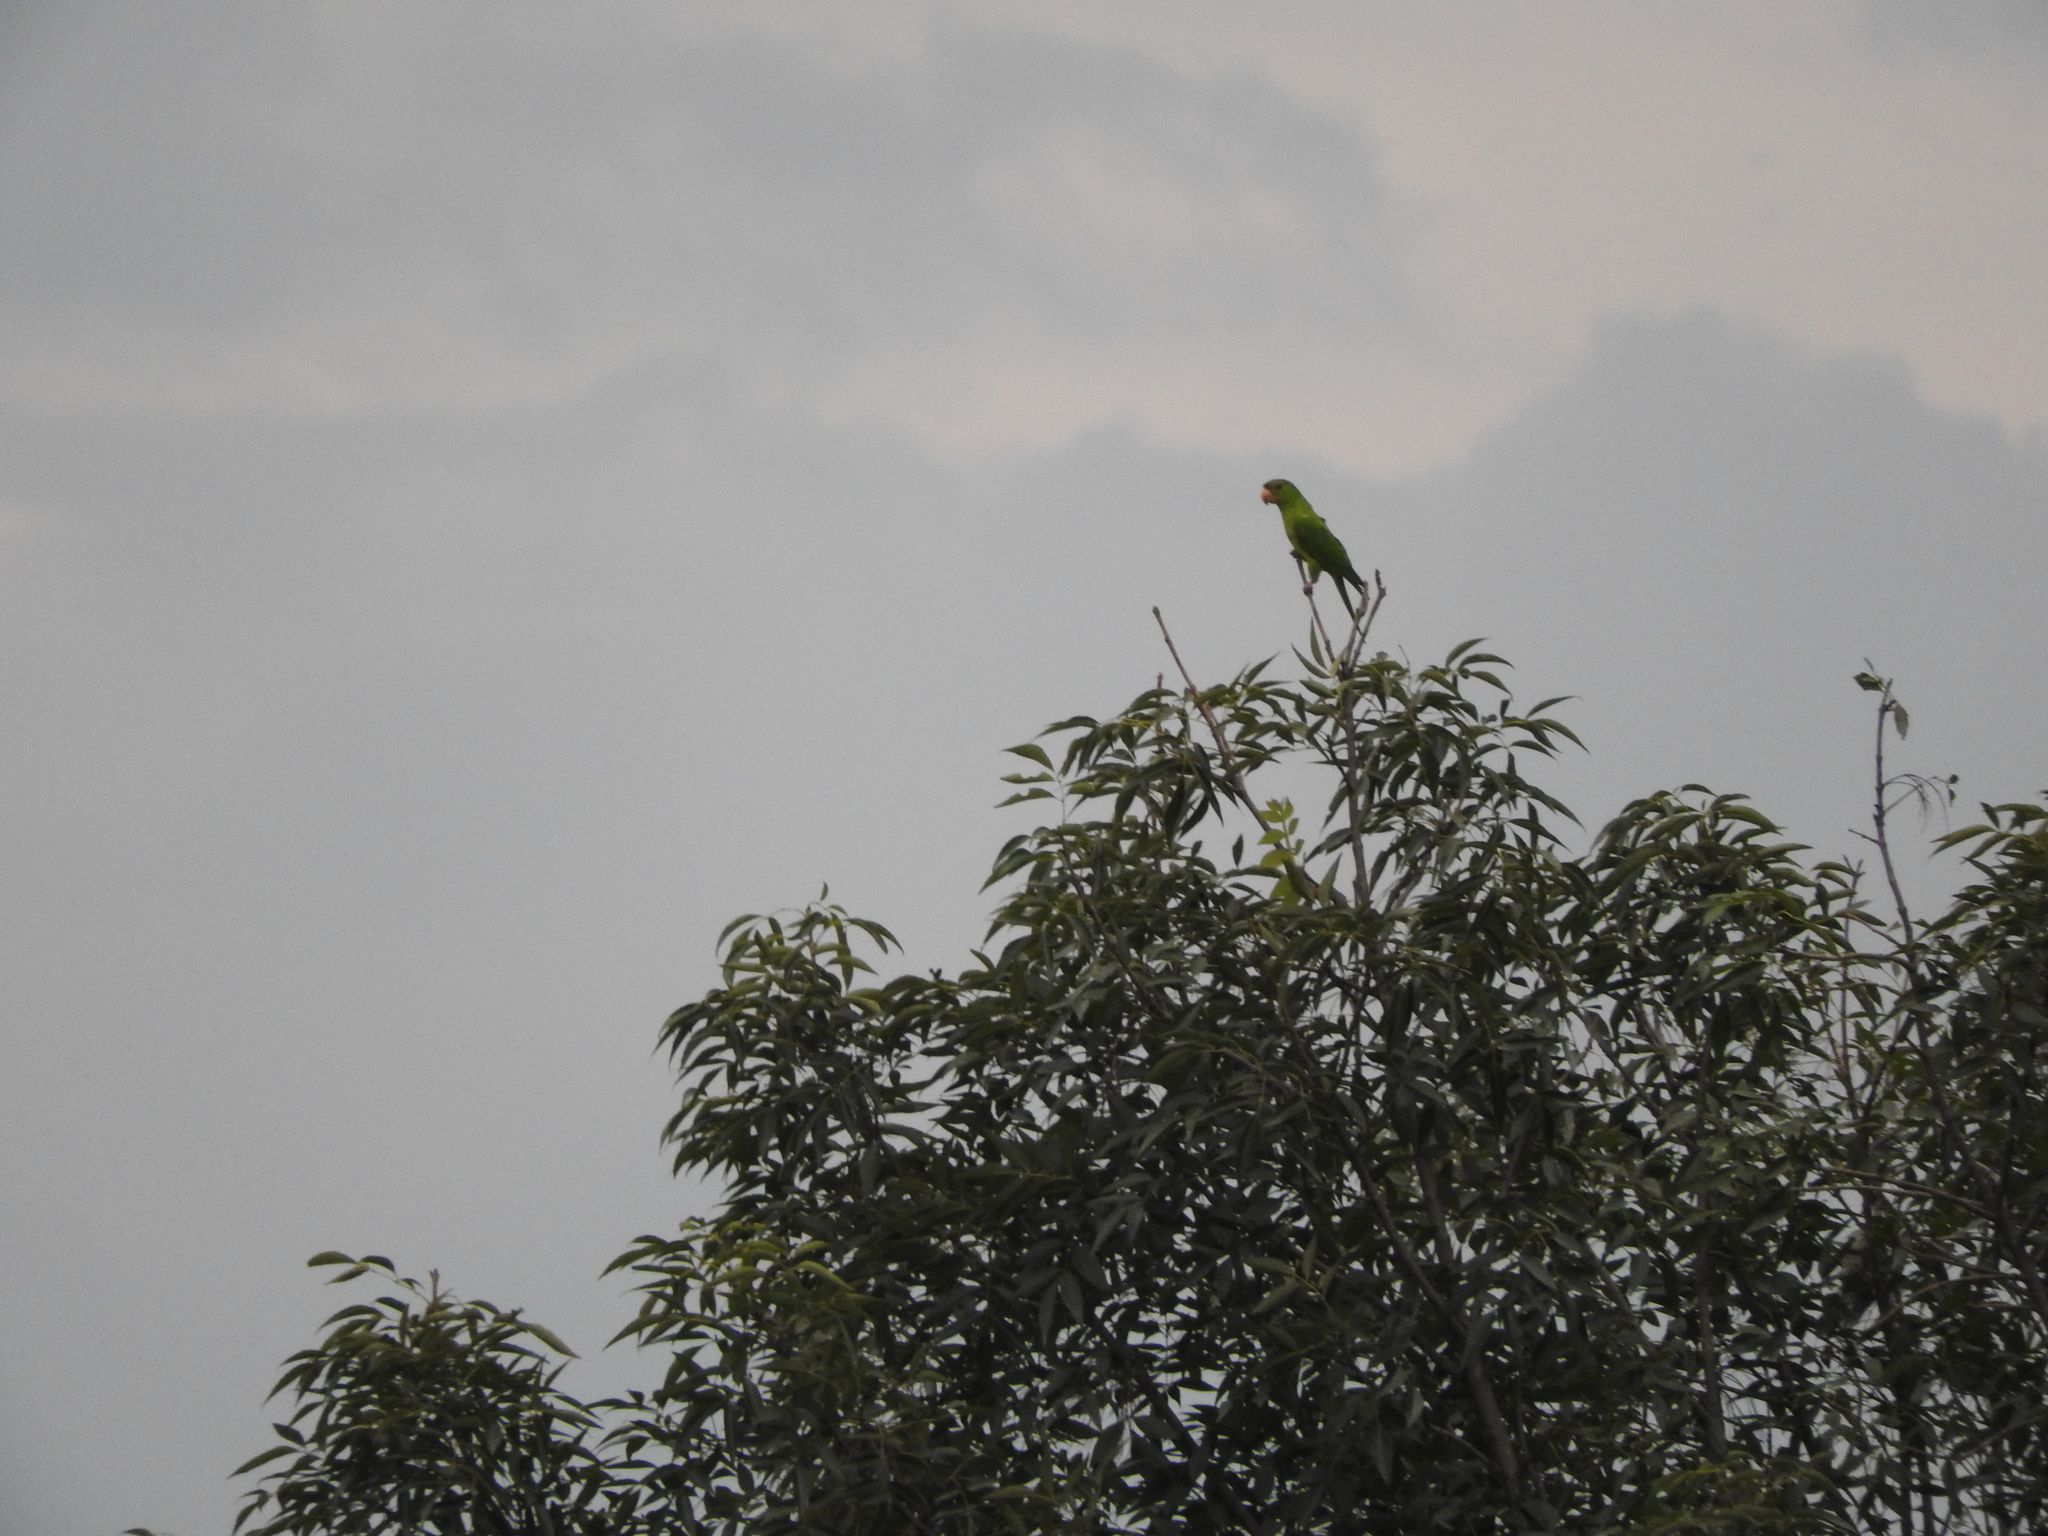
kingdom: Animalia
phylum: Chordata
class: Aves
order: Psittaciformes
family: Psittacidae
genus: Aratinga
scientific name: Aratinga holochlora
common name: Green parakeet
